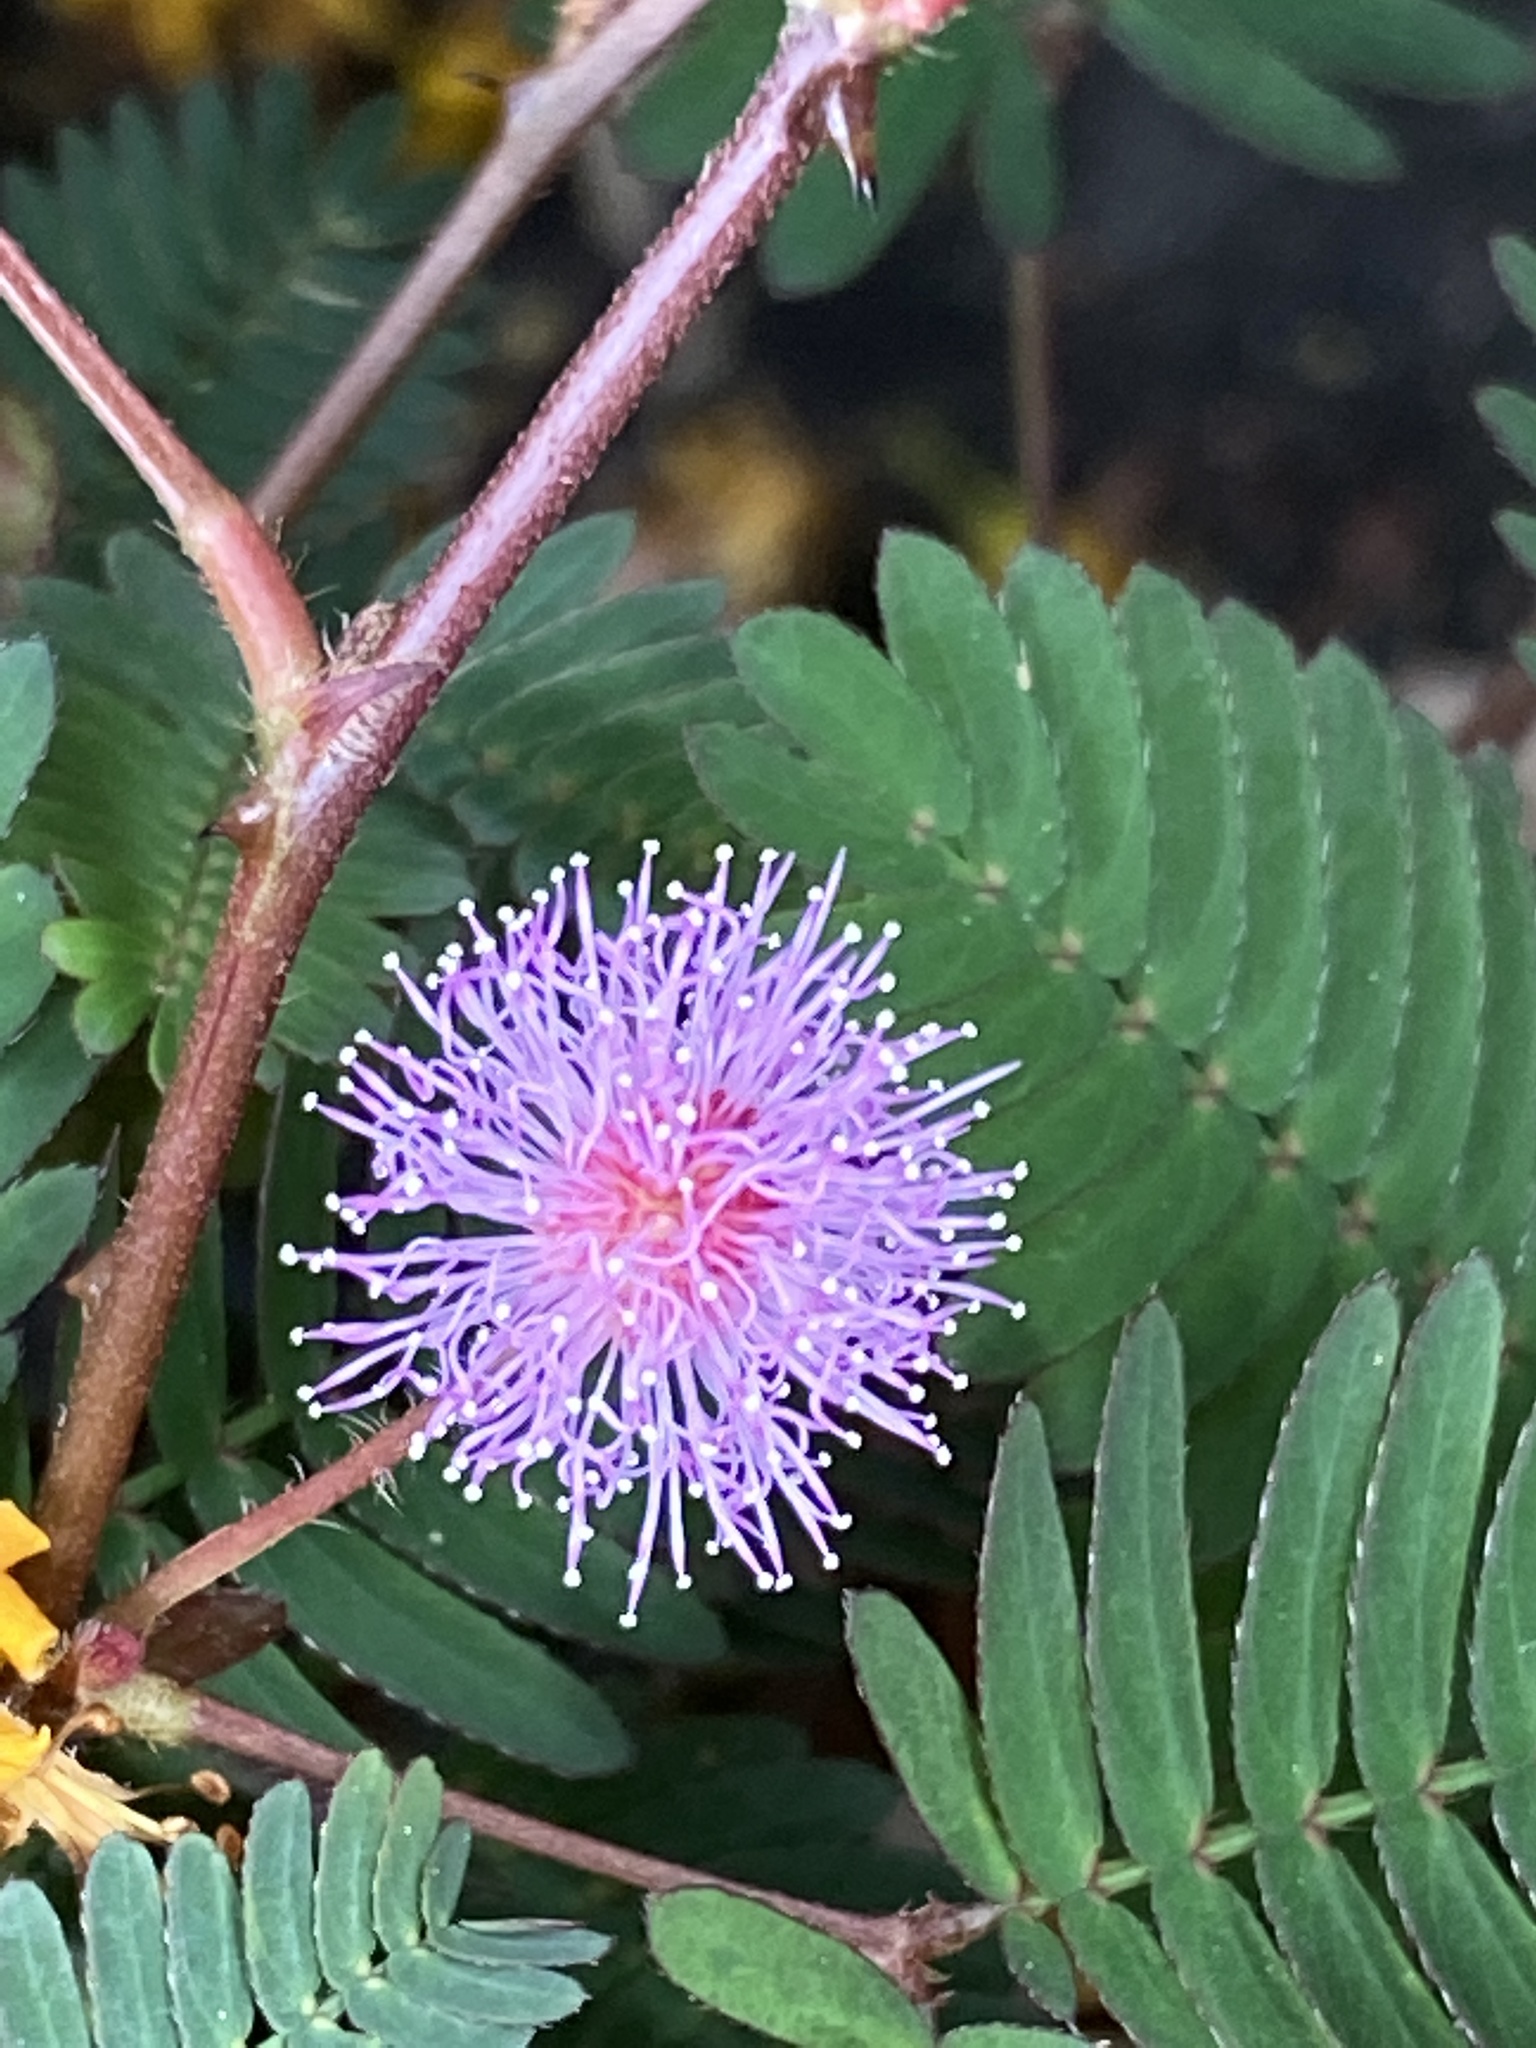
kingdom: Plantae
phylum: Tracheophyta
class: Magnoliopsida
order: Fabales
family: Fabaceae
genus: Mimosa
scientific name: Mimosa pudica
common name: Sensitive plant
